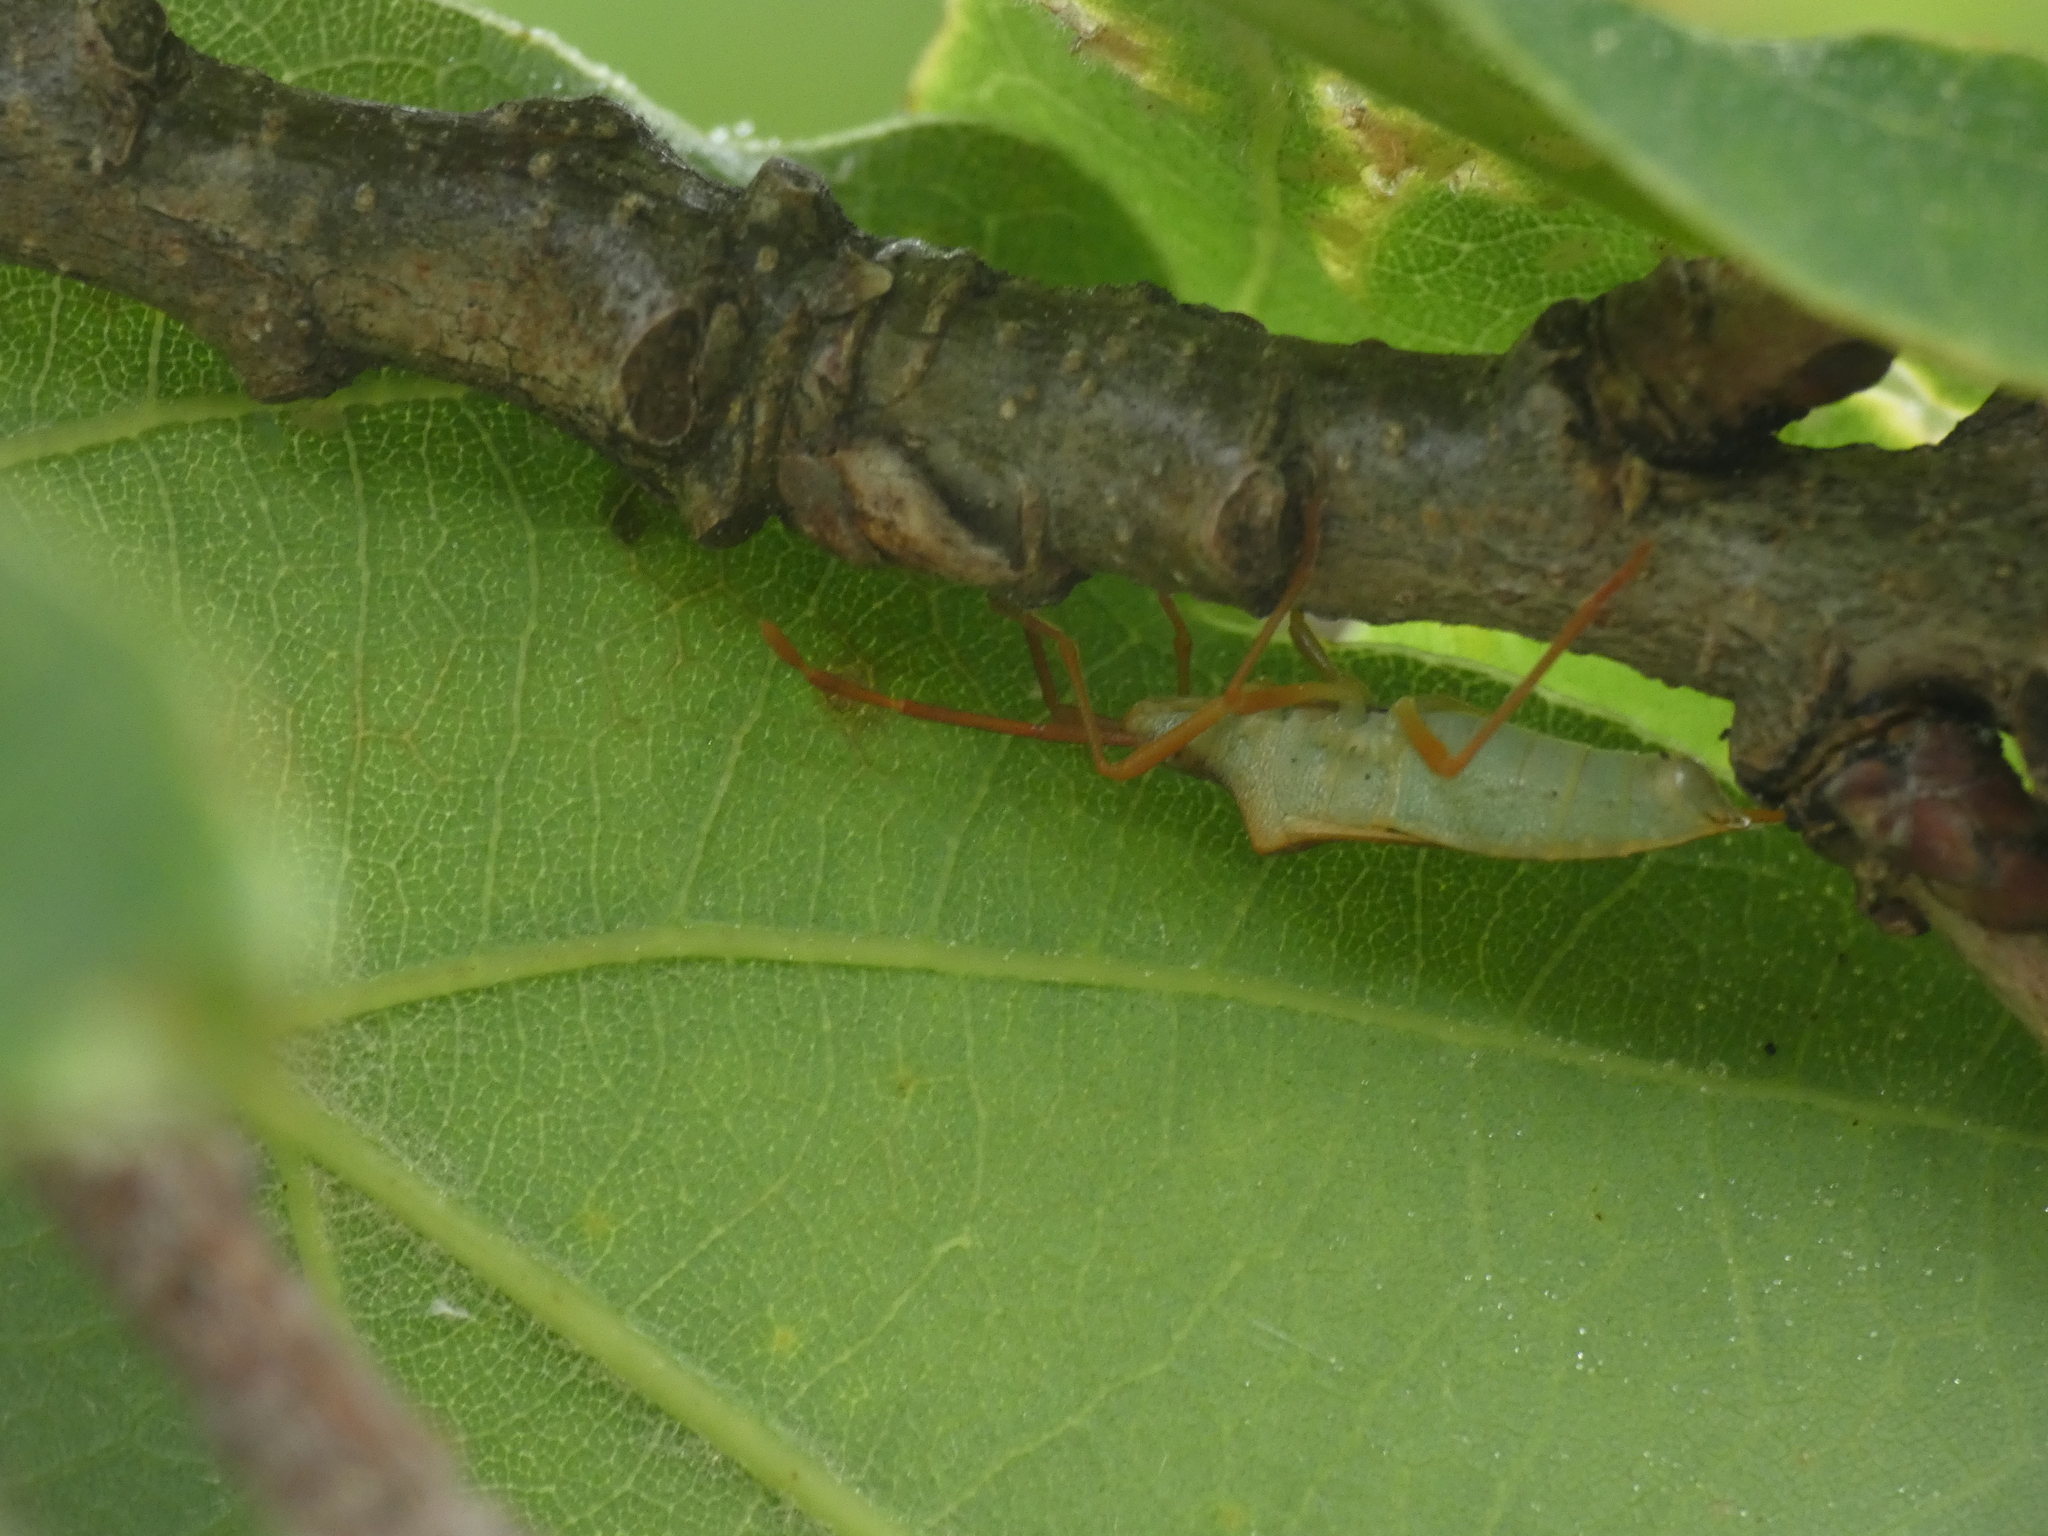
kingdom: Animalia
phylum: Arthropoda
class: Insecta
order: Hemiptera
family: Coreidae
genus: Gonocerus
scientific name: Gonocerus acuteangulatus
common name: Box bug
